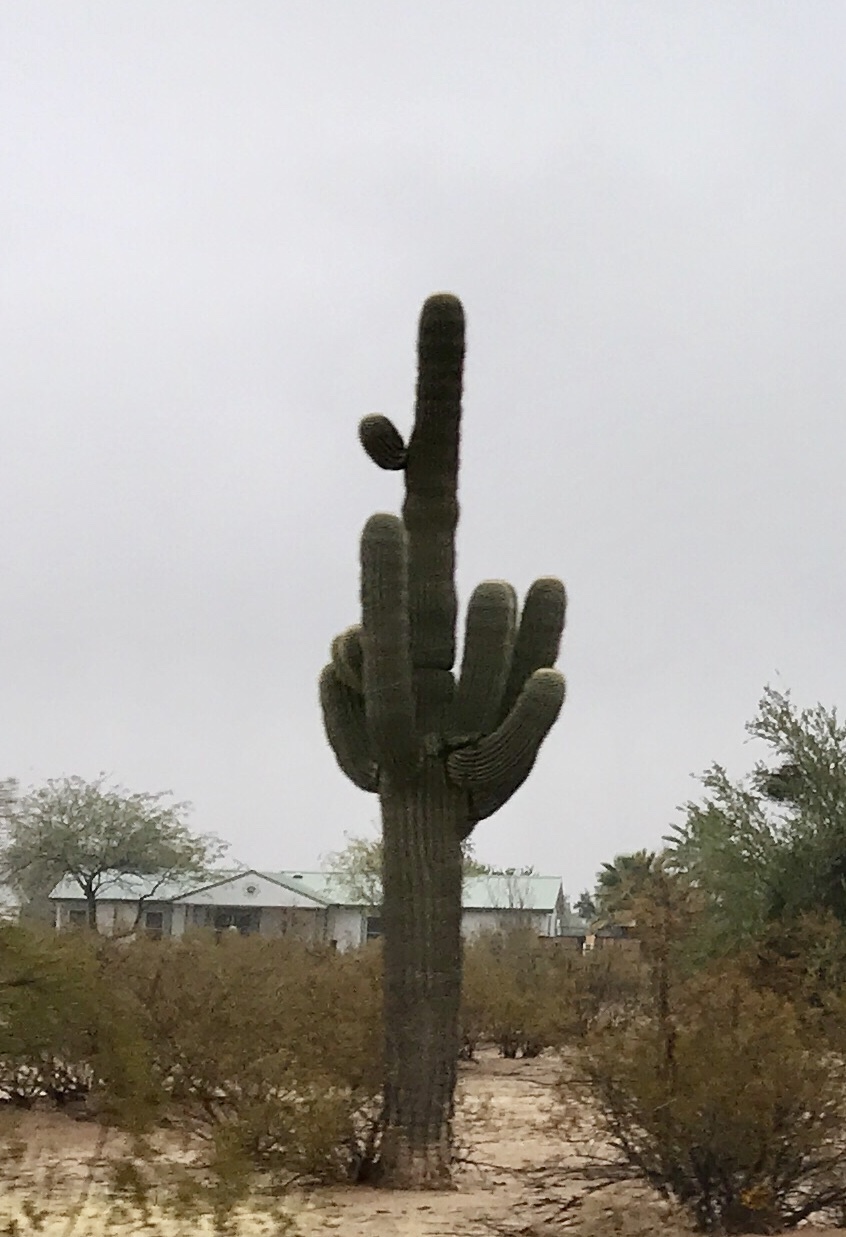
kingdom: Plantae
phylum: Tracheophyta
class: Magnoliopsida
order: Caryophyllales
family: Cactaceae
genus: Carnegiea
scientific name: Carnegiea gigantea
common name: Saguaro
